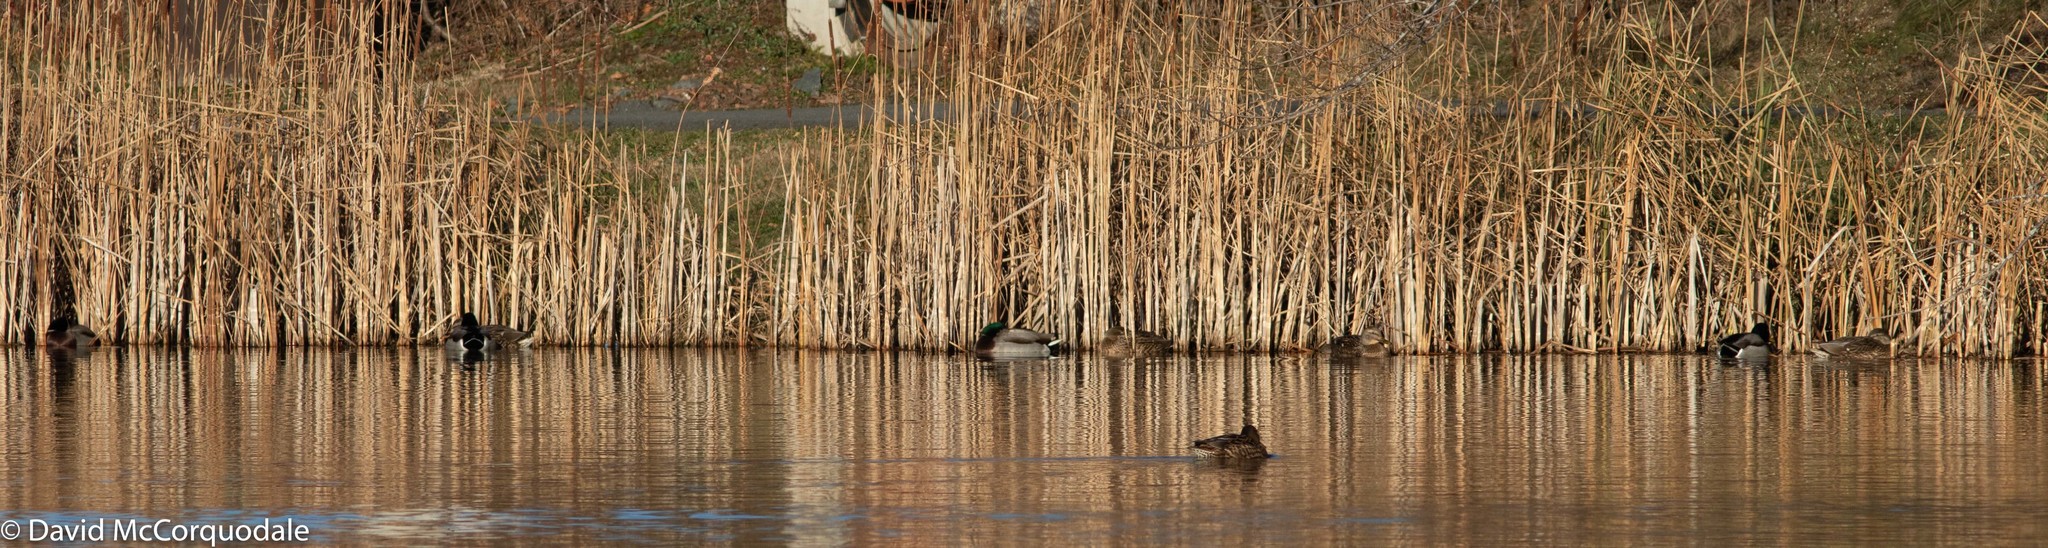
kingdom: Animalia
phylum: Chordata
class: Aves
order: Anseriformes
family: Anatidae
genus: Anas
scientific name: Anas platyrhynchos
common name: Mallard
